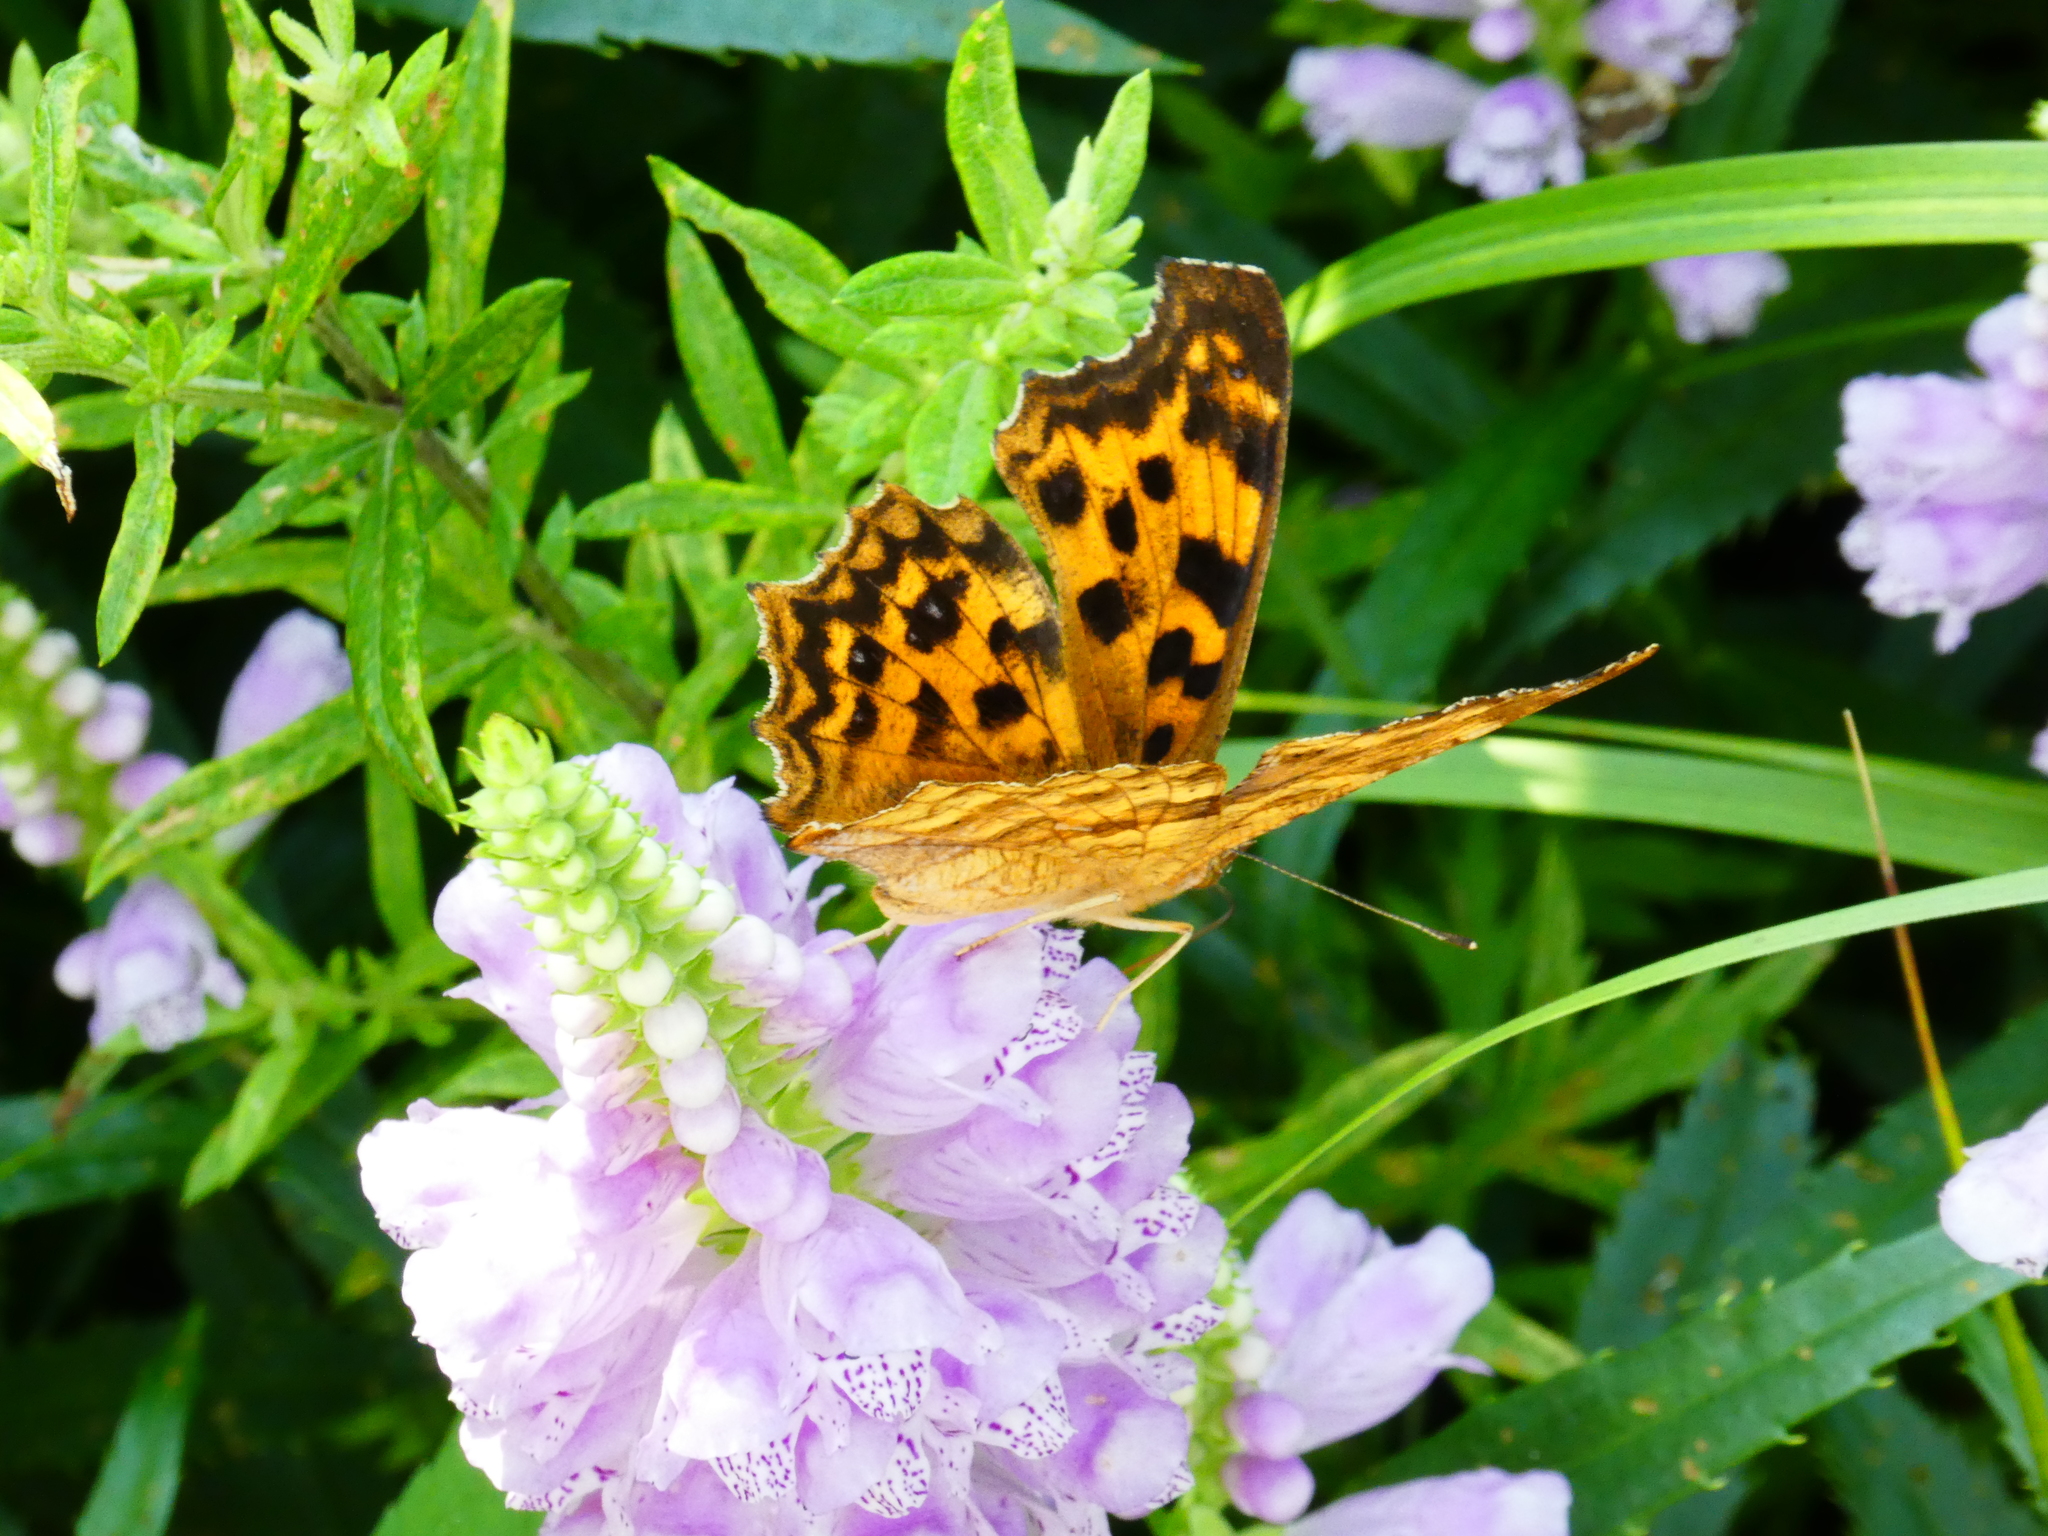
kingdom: Animalia
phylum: Arthropoda
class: Insecta
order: Lepidoptera
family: Nymphalidae
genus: Polygonia
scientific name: Polygonia c-aureum
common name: Asian comma
